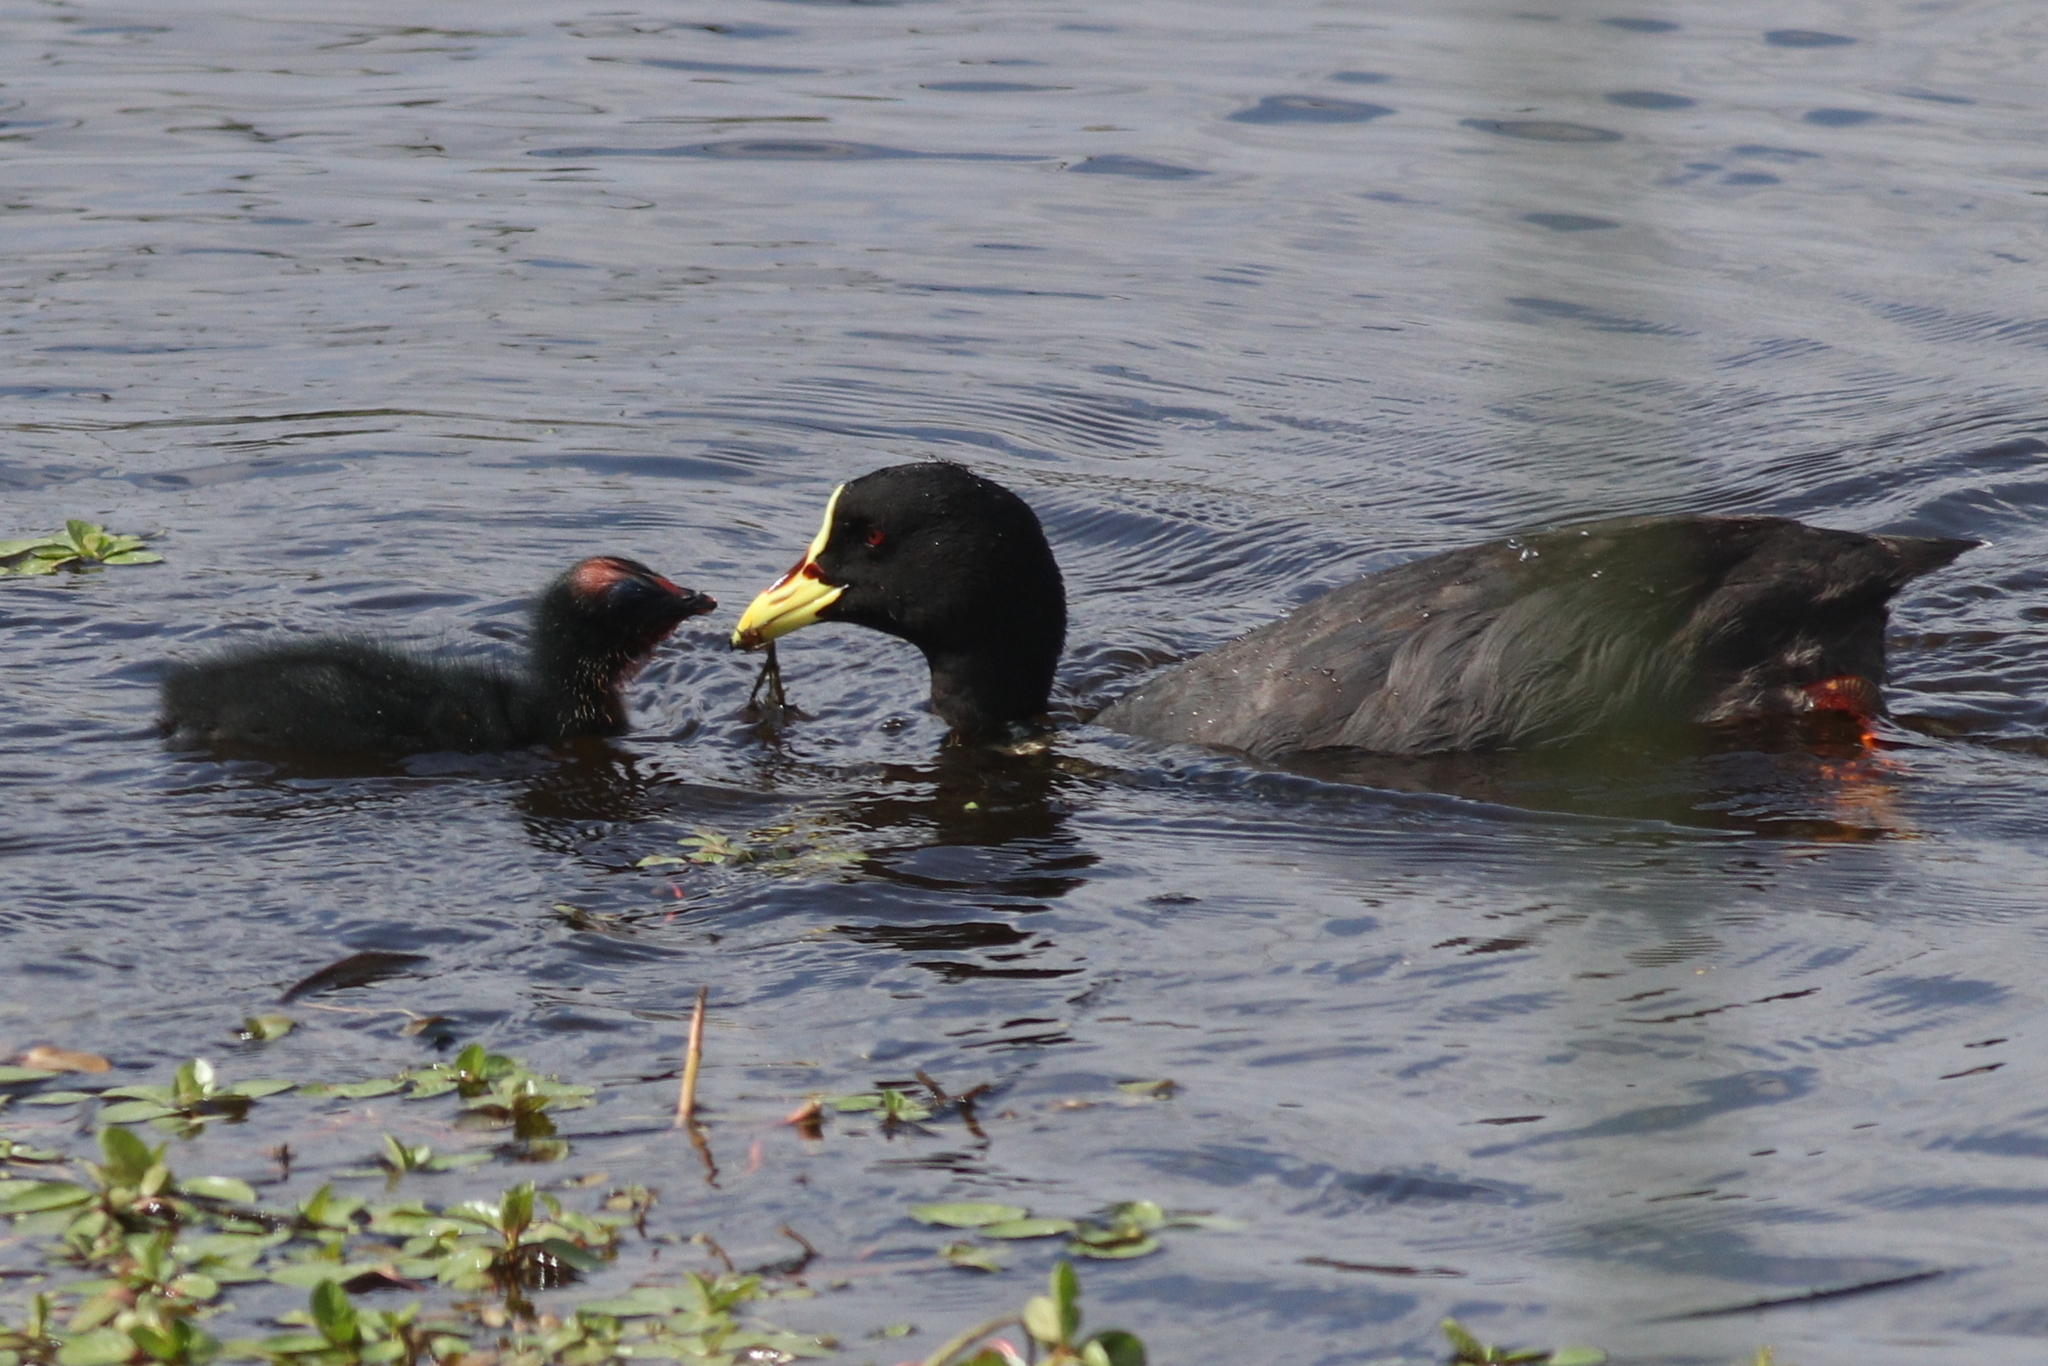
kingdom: Animalia
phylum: Chordata
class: Aves
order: Gruiformes
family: Rallidae
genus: Fulica
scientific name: Fulica armillata
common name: Red-gartered coot
